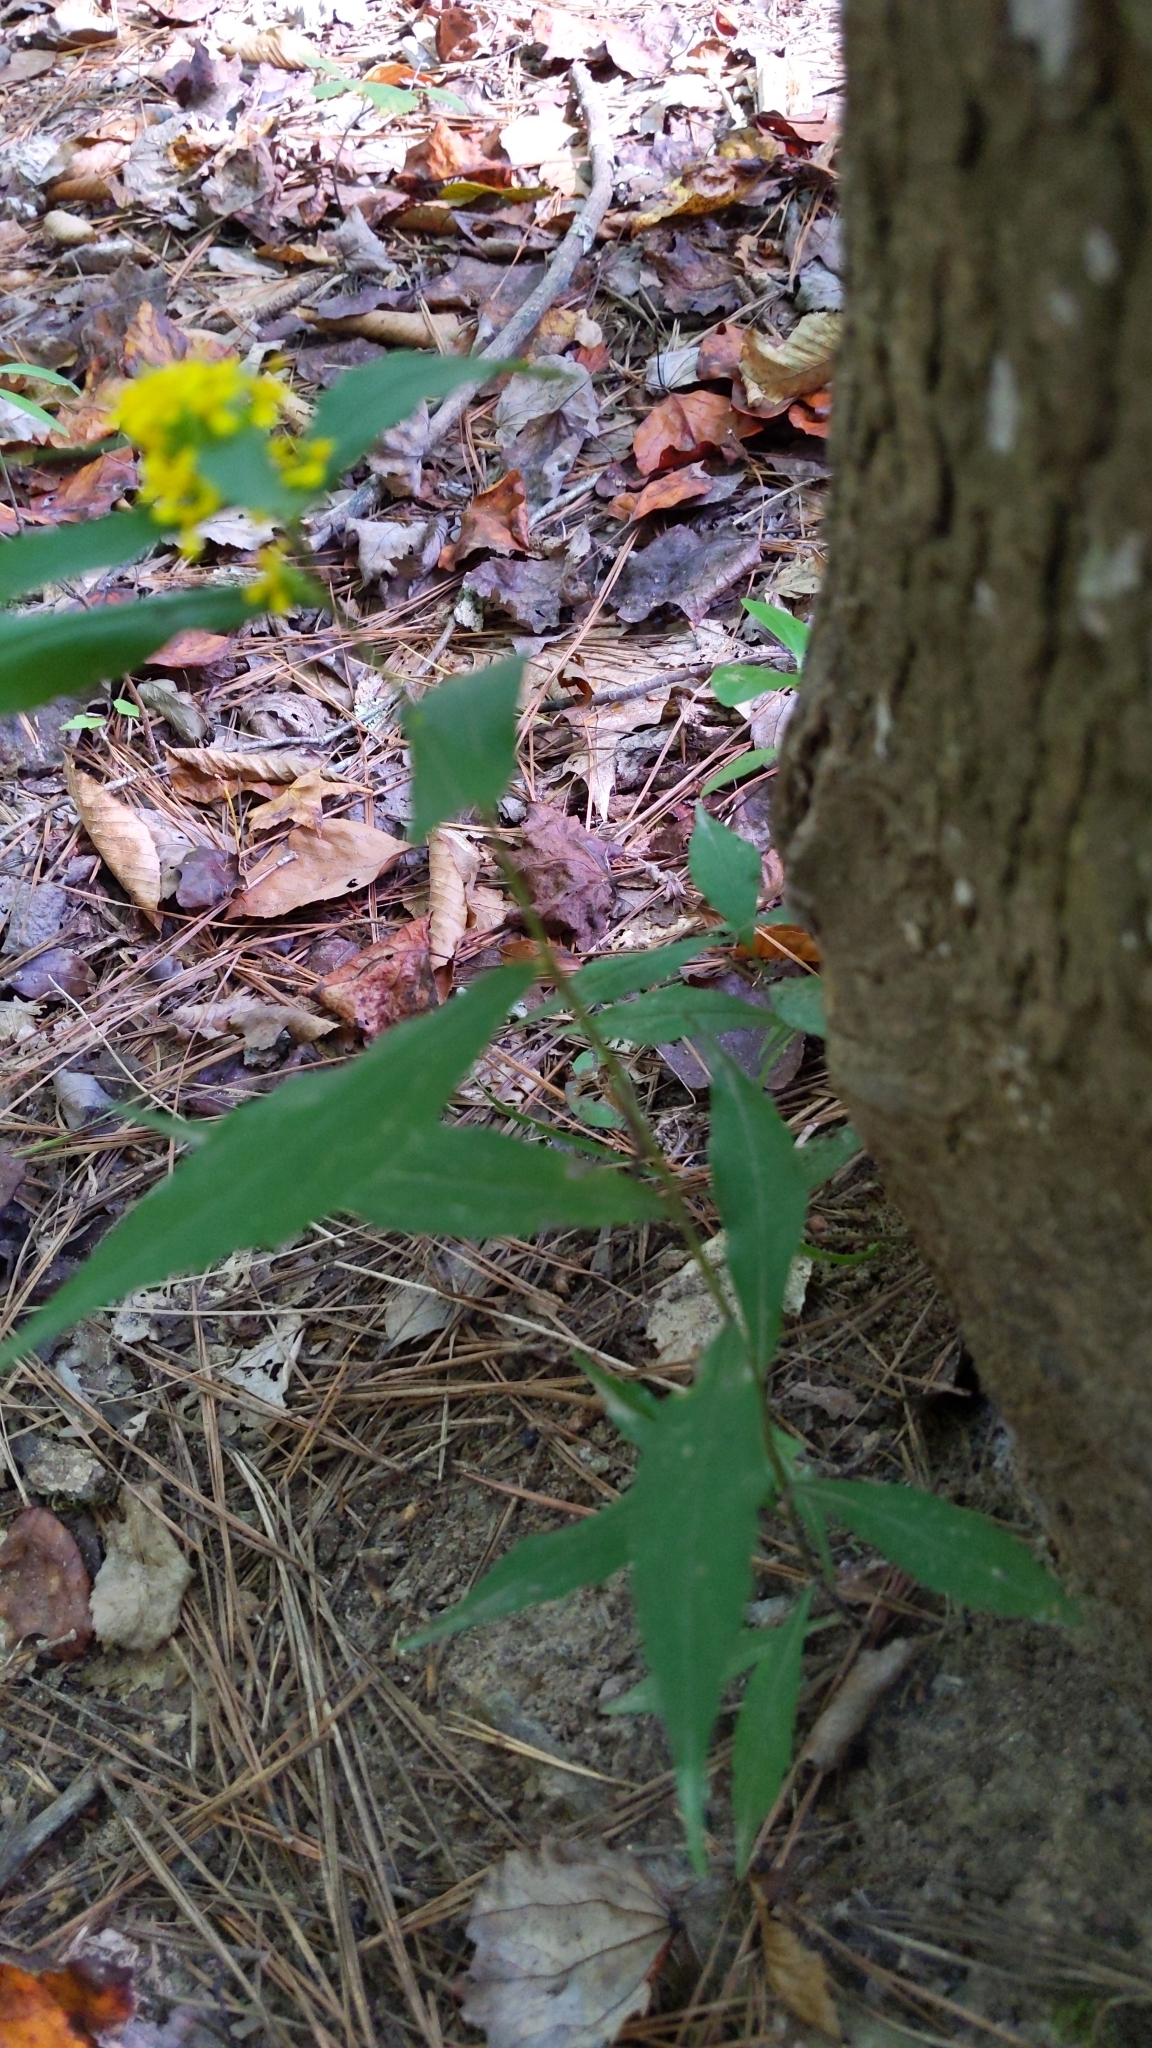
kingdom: Plantae
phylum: Tracheophyta
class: Magnoliopsida
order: Asterales
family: Asteraceae
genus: Solidago
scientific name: Solidago caesia
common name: Woodland goldenrod
